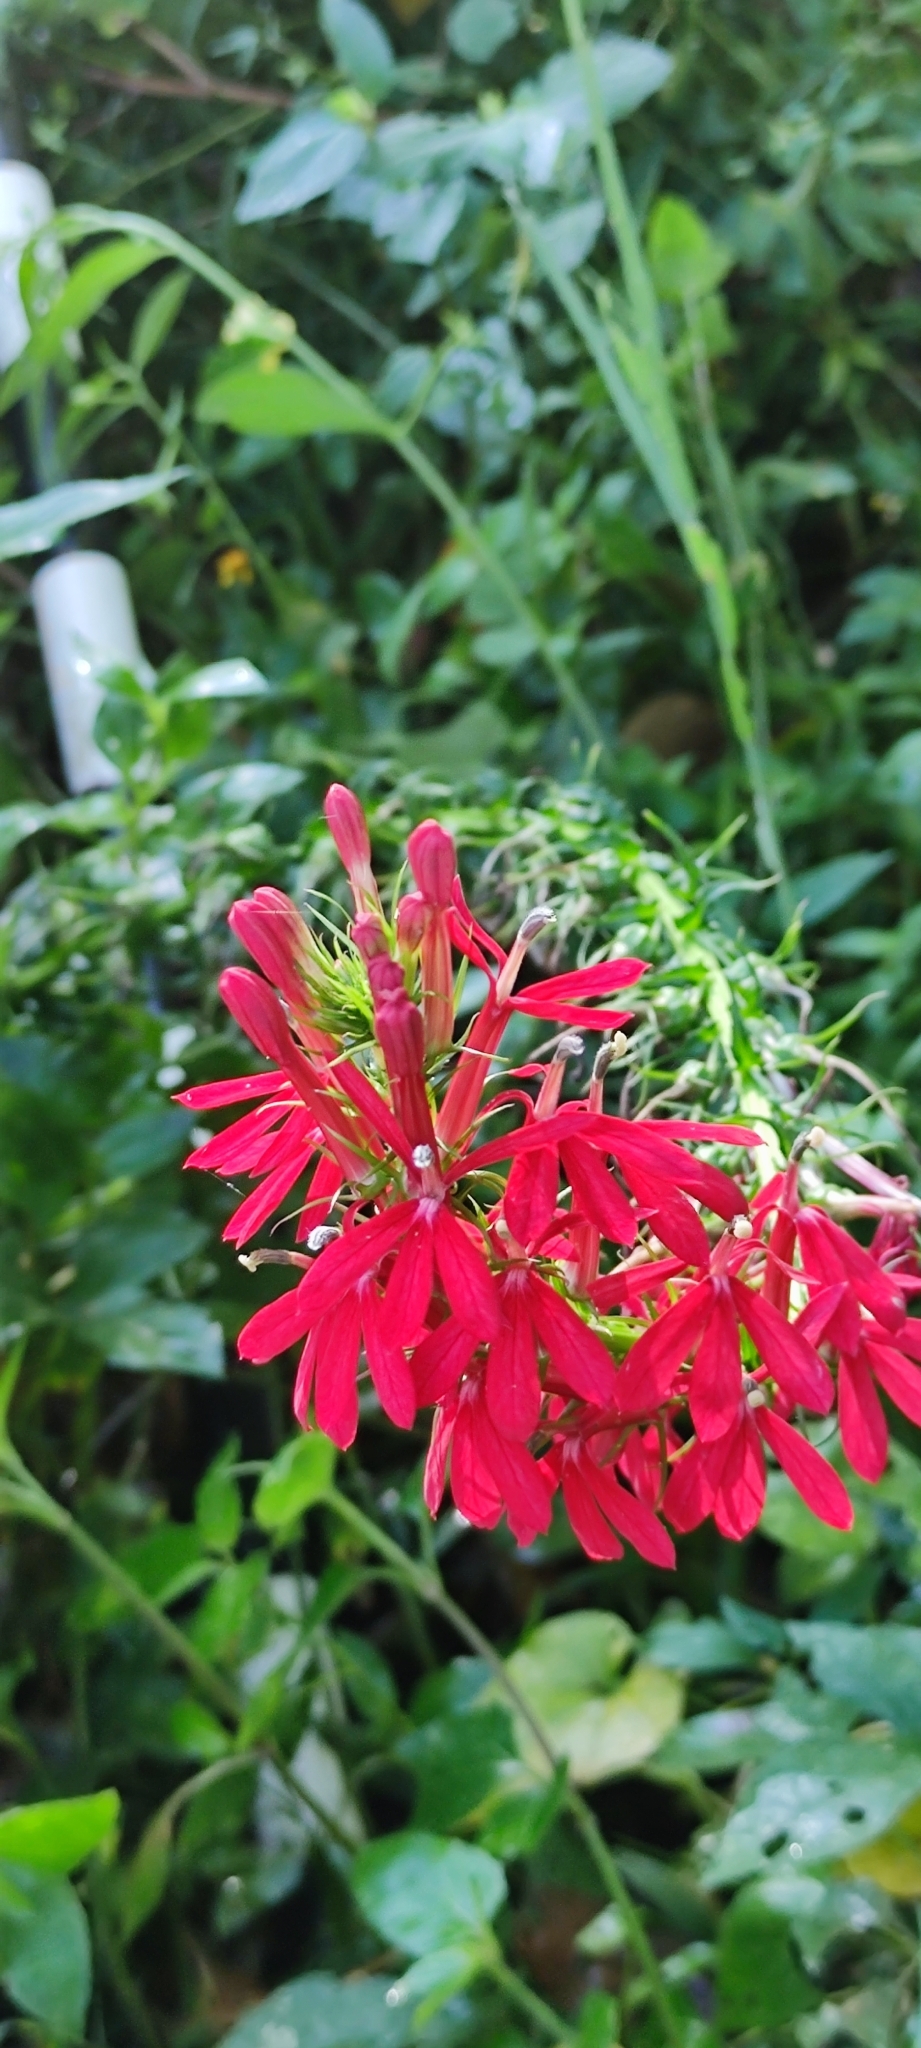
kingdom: Plantae
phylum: Tracheophyta
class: Magnoliopsida
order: Asterales
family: Campanulaceae
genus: Lobelia
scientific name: Lobelia cardinalis
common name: Cardinal flower
